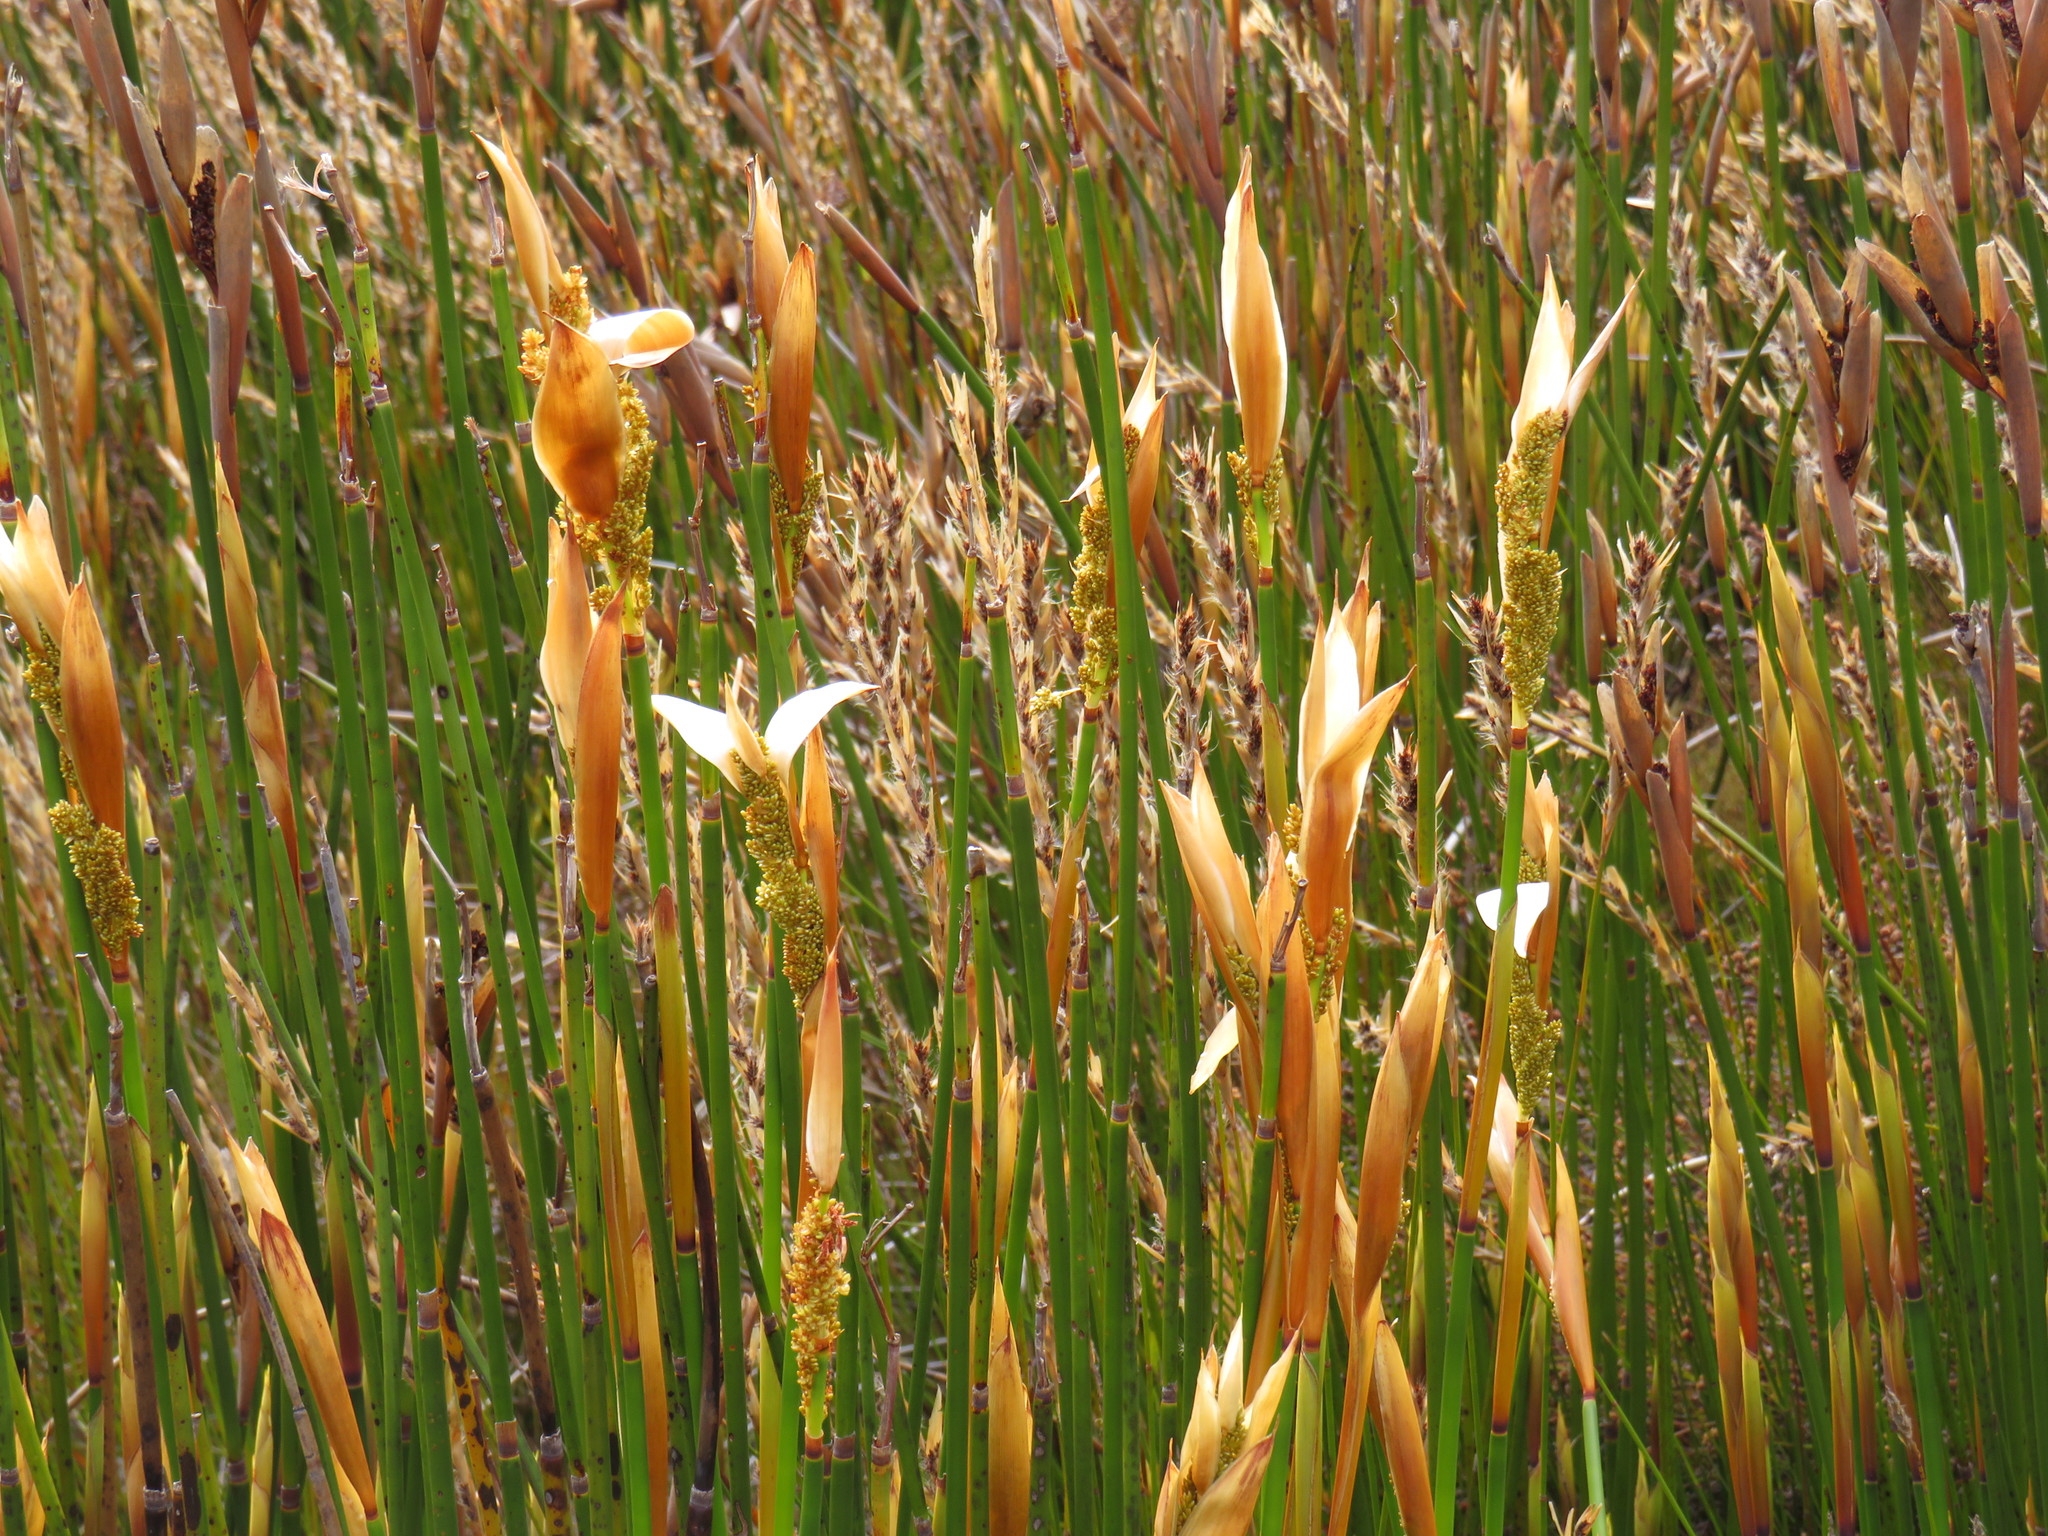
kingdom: Plantae
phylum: Tracheophyta
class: Liliopsida
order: Poales
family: Restionaceae
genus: Elegia
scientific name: Elegia mucronata
